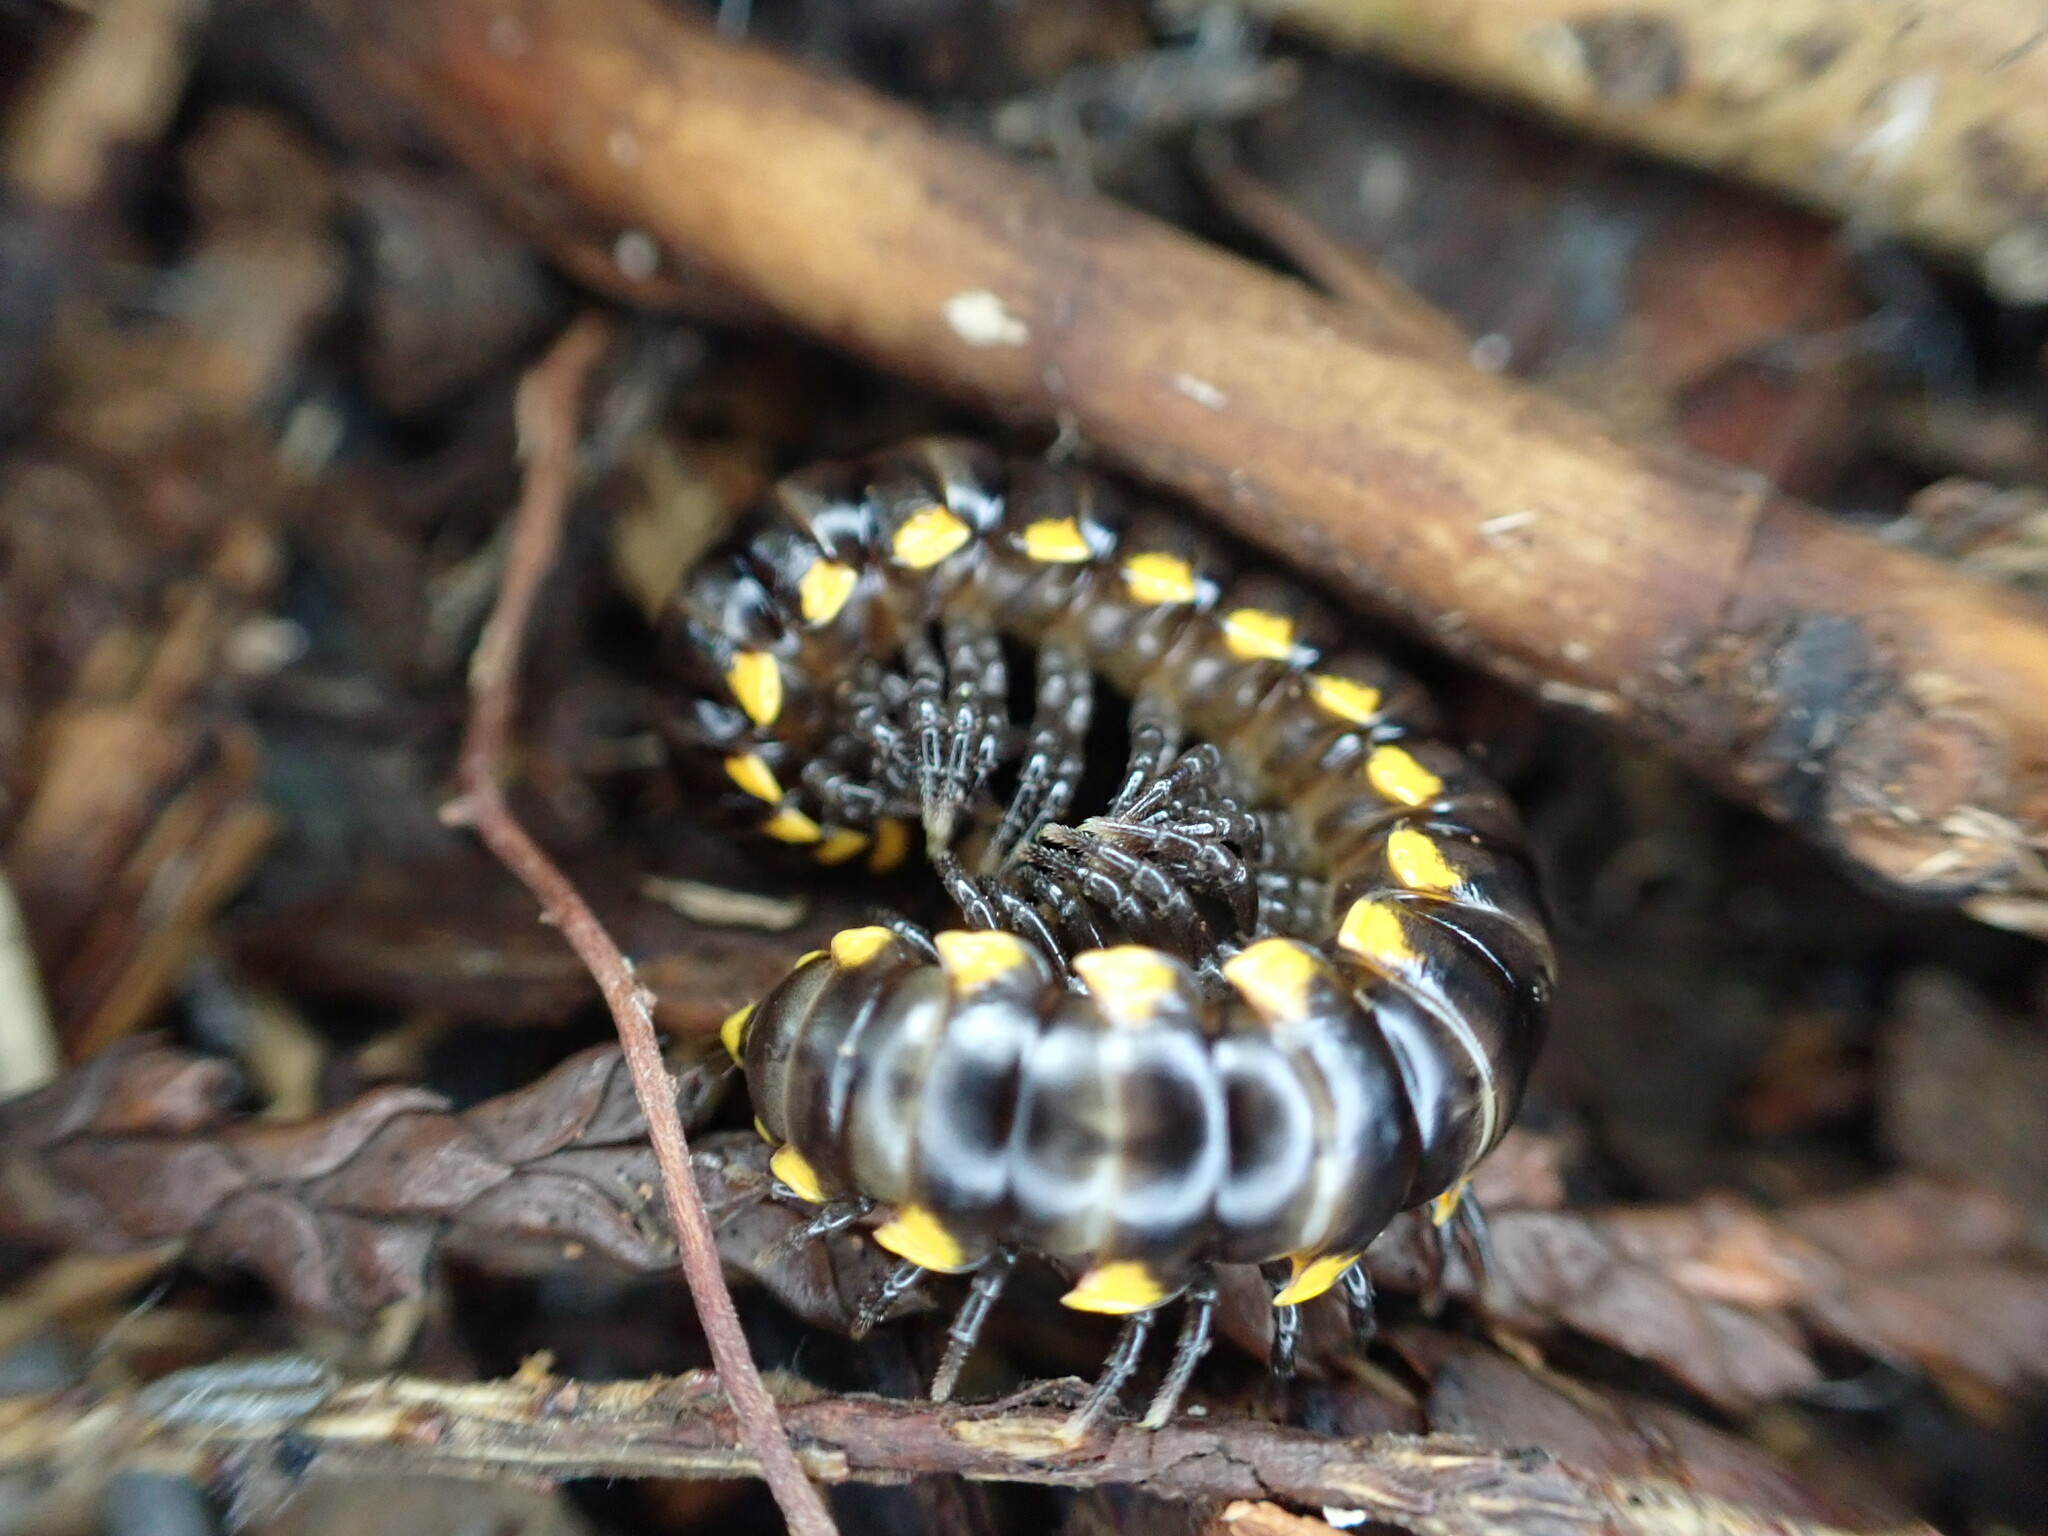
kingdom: Animalia
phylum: Arthropoda
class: Diplopoda
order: Polydesmida
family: Xystodesmidae
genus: Harpaphe
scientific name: Harpaphe haydeniana
